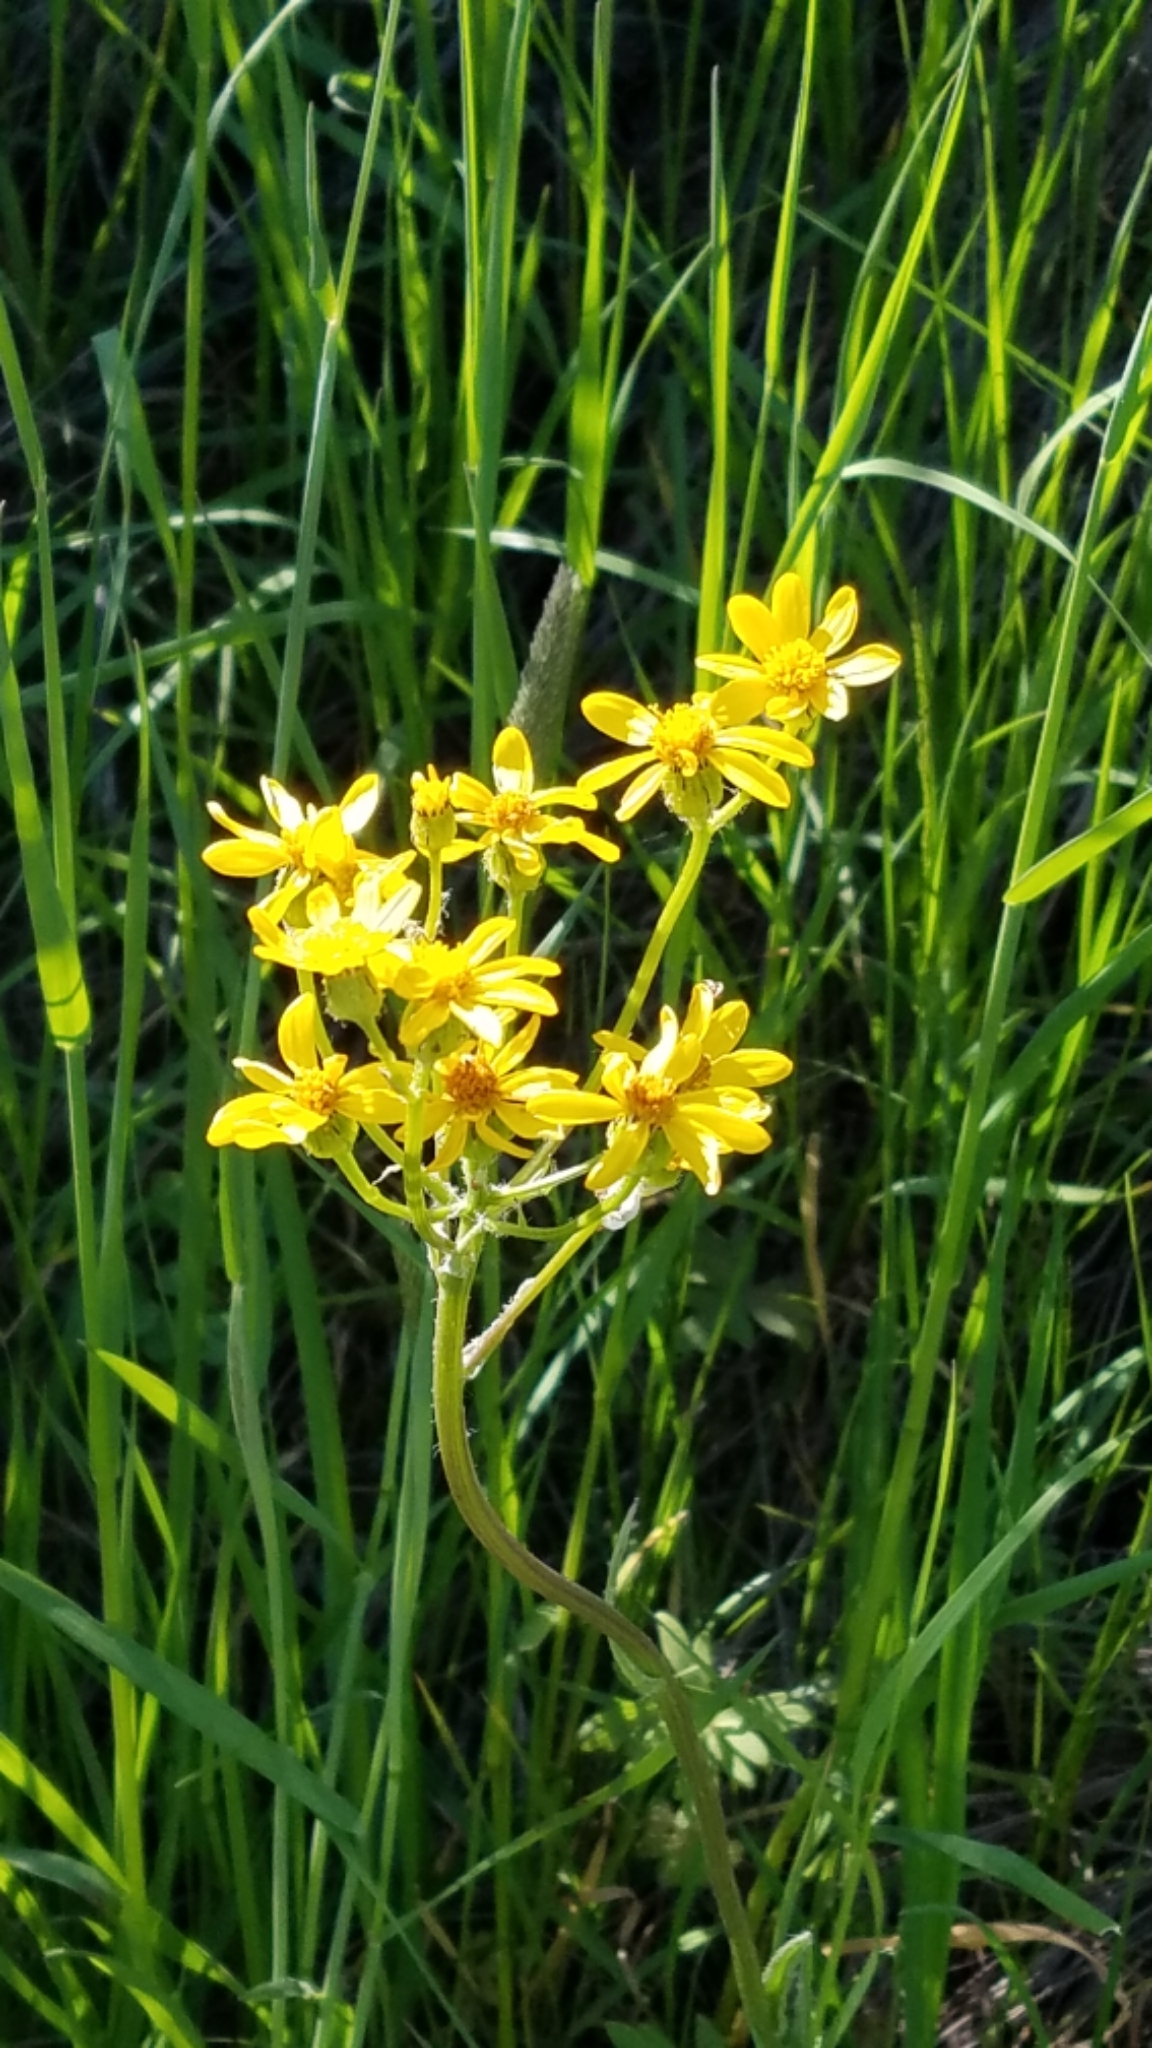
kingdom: Plantae
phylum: Tracheophyta
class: Magnoliopsida
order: Asterales
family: Asteraceae
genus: Senecio
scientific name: Senecio integerrimus
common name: Gaugeplant
